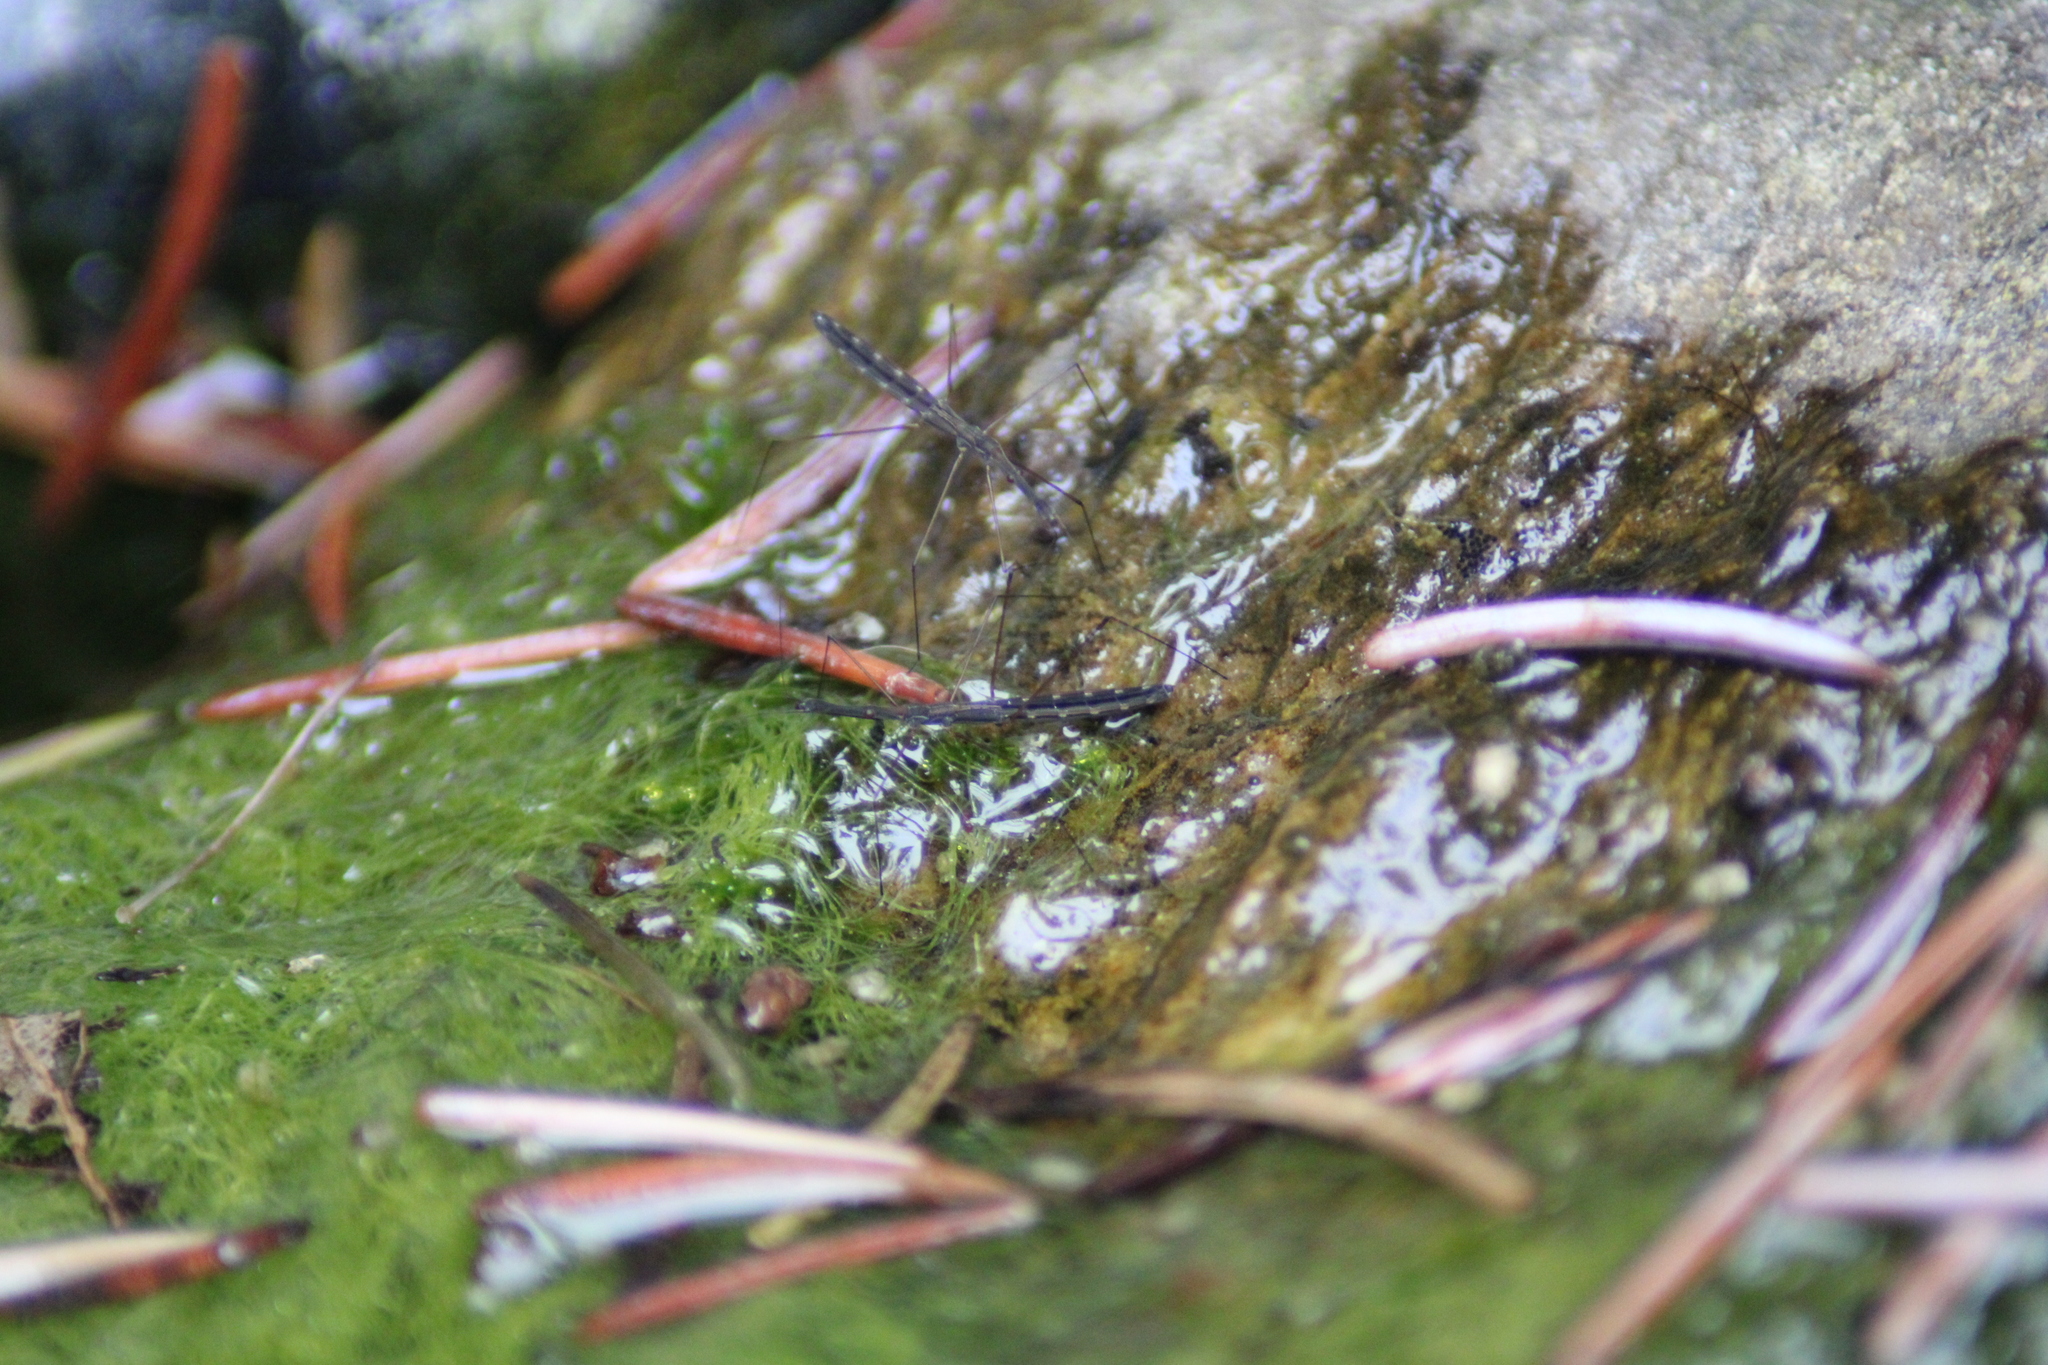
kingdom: Animalia
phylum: Arthropoda
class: Insecta
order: Hemiptera
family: Hydrometridae
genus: Hydrometra
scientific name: Hydrometra stagnorum
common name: Water measurer
